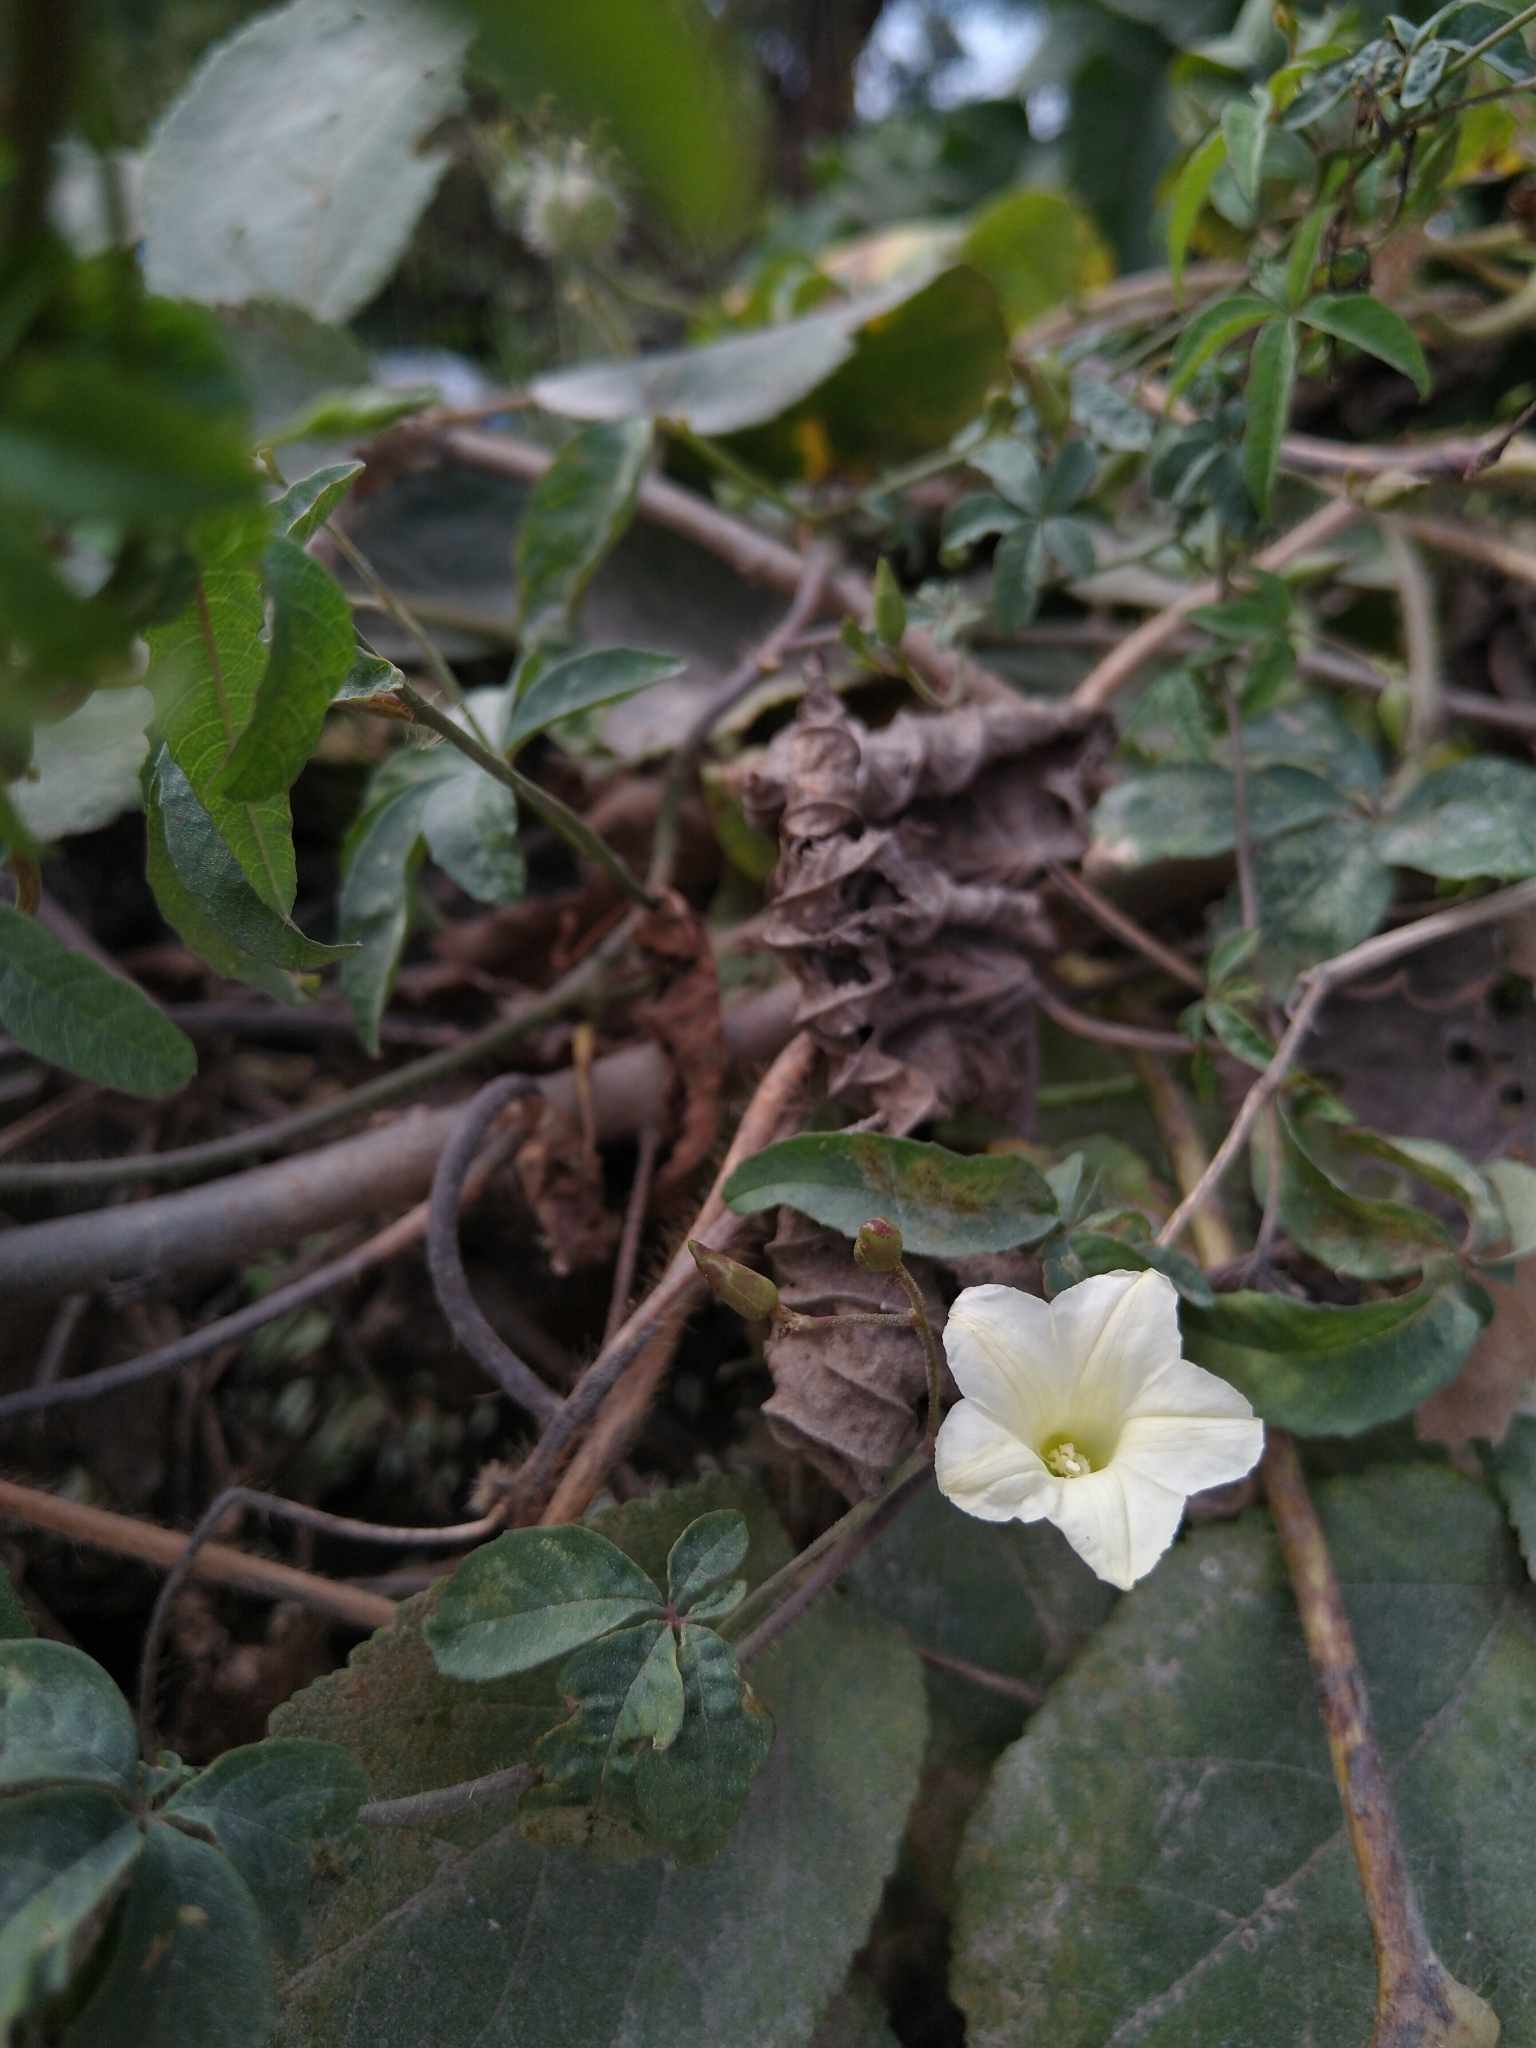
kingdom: Plantae
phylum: Tracheophyta
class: Magnoliopsida
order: Solanales
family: Convolvulaceae
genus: Distimake
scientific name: Distimake quinquefolius
